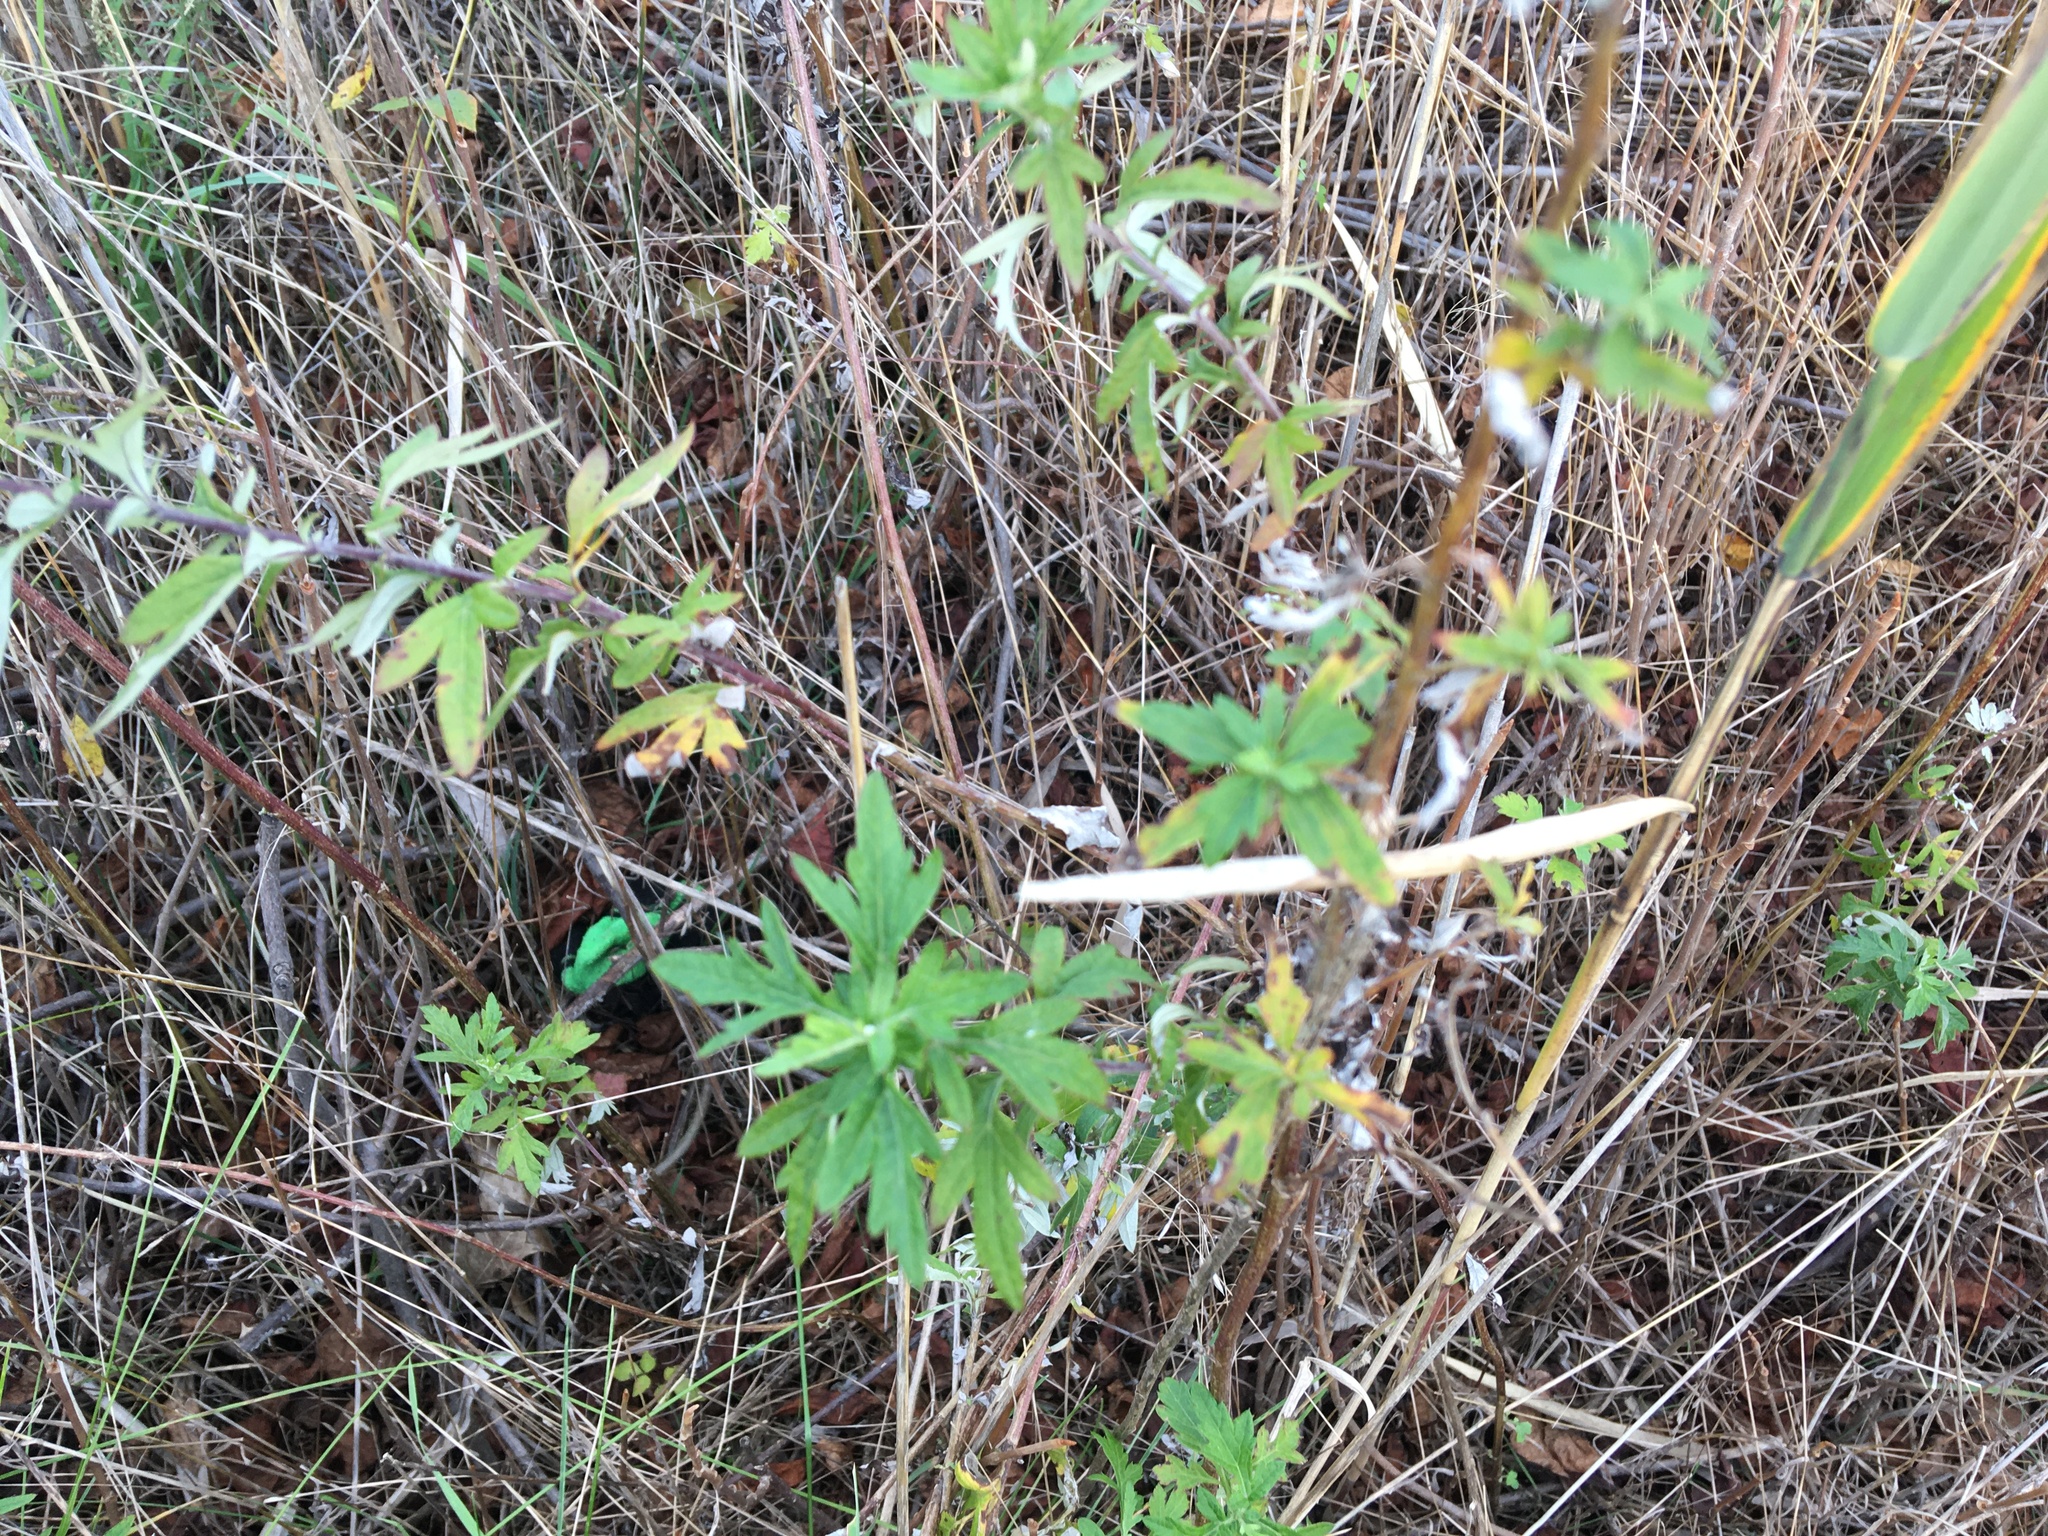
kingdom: Plantae
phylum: Tracheophyta
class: Magnoliopsida
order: Asterales
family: Asteraceae
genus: Artemisia
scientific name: Artemisia vulgaris
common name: Mugwort
